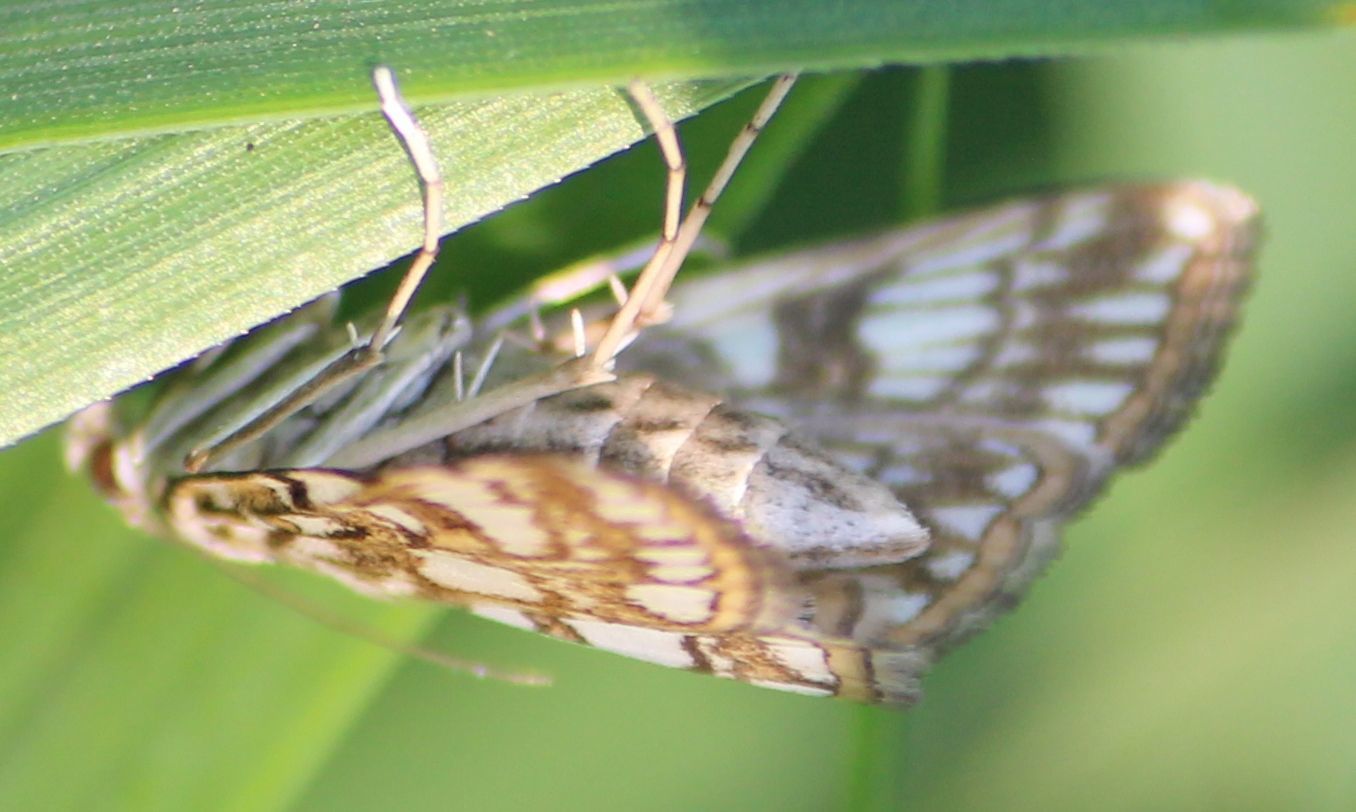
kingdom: Animalia
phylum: Arthropoda
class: Insecta
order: Lepidoptera
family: Crambidae
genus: Elophila
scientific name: Elophila nymphaeata
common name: Brown china-mark
